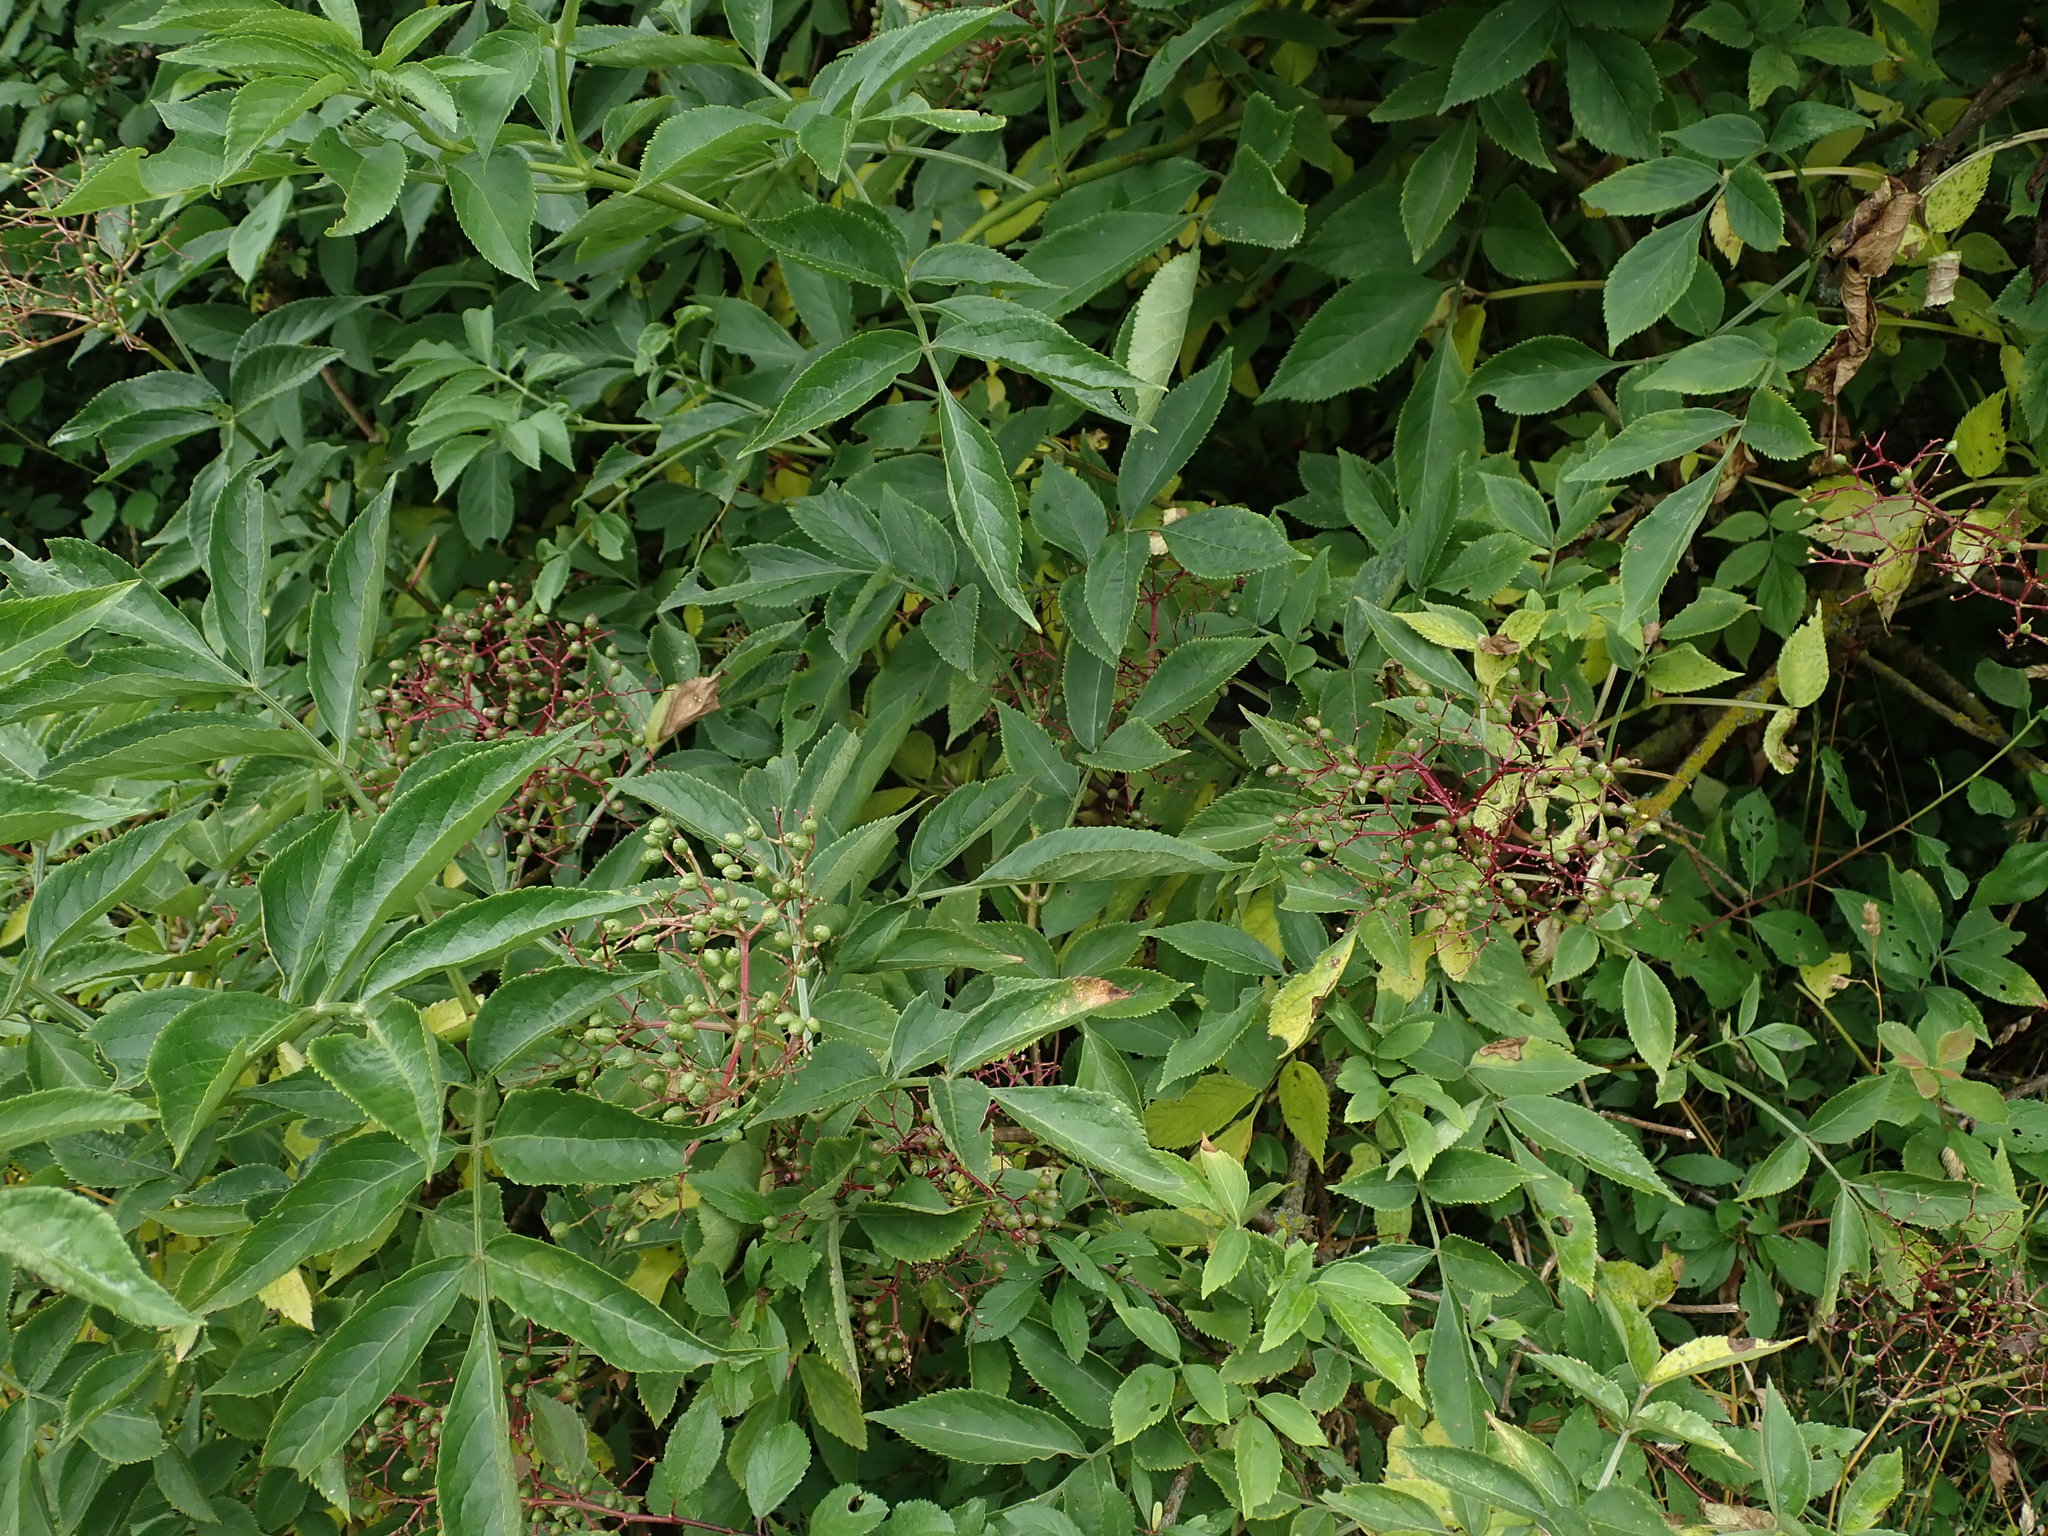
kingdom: Plantae
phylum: Tracheophyta
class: Magnoliopsida
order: Dipsacales
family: Viburnaceae
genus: Sambucus
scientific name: Sambucus nigra
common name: Elder
